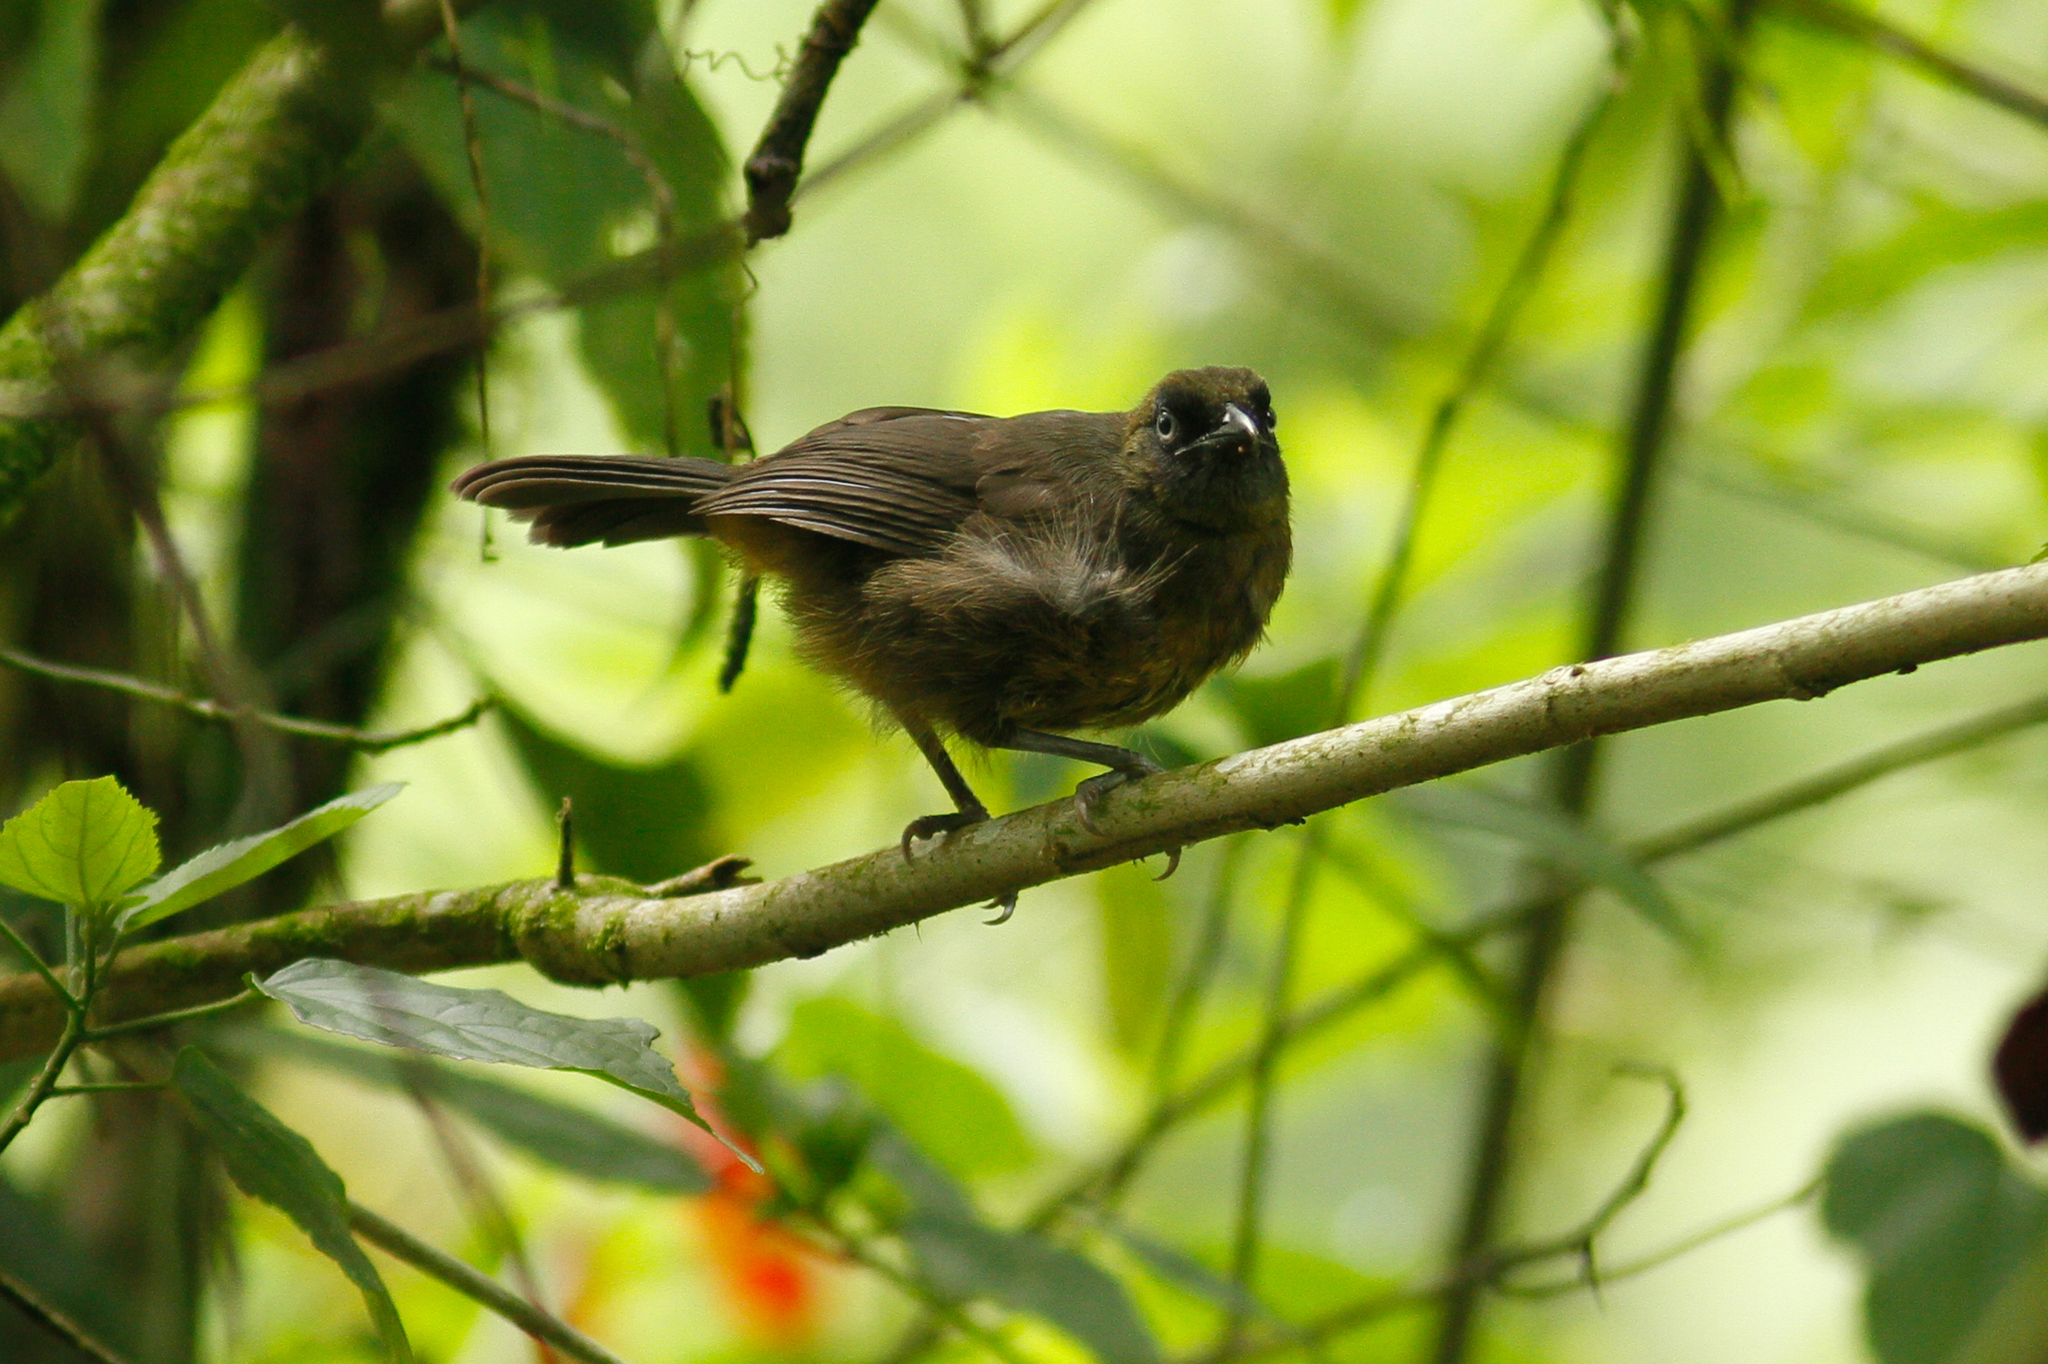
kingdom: Animalia
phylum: Chordata
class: Aves
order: Passeriformes
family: Mitrospingidae
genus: Mitrospingus
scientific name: Mitrospingus cassinii
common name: Dusky-faced tanager
